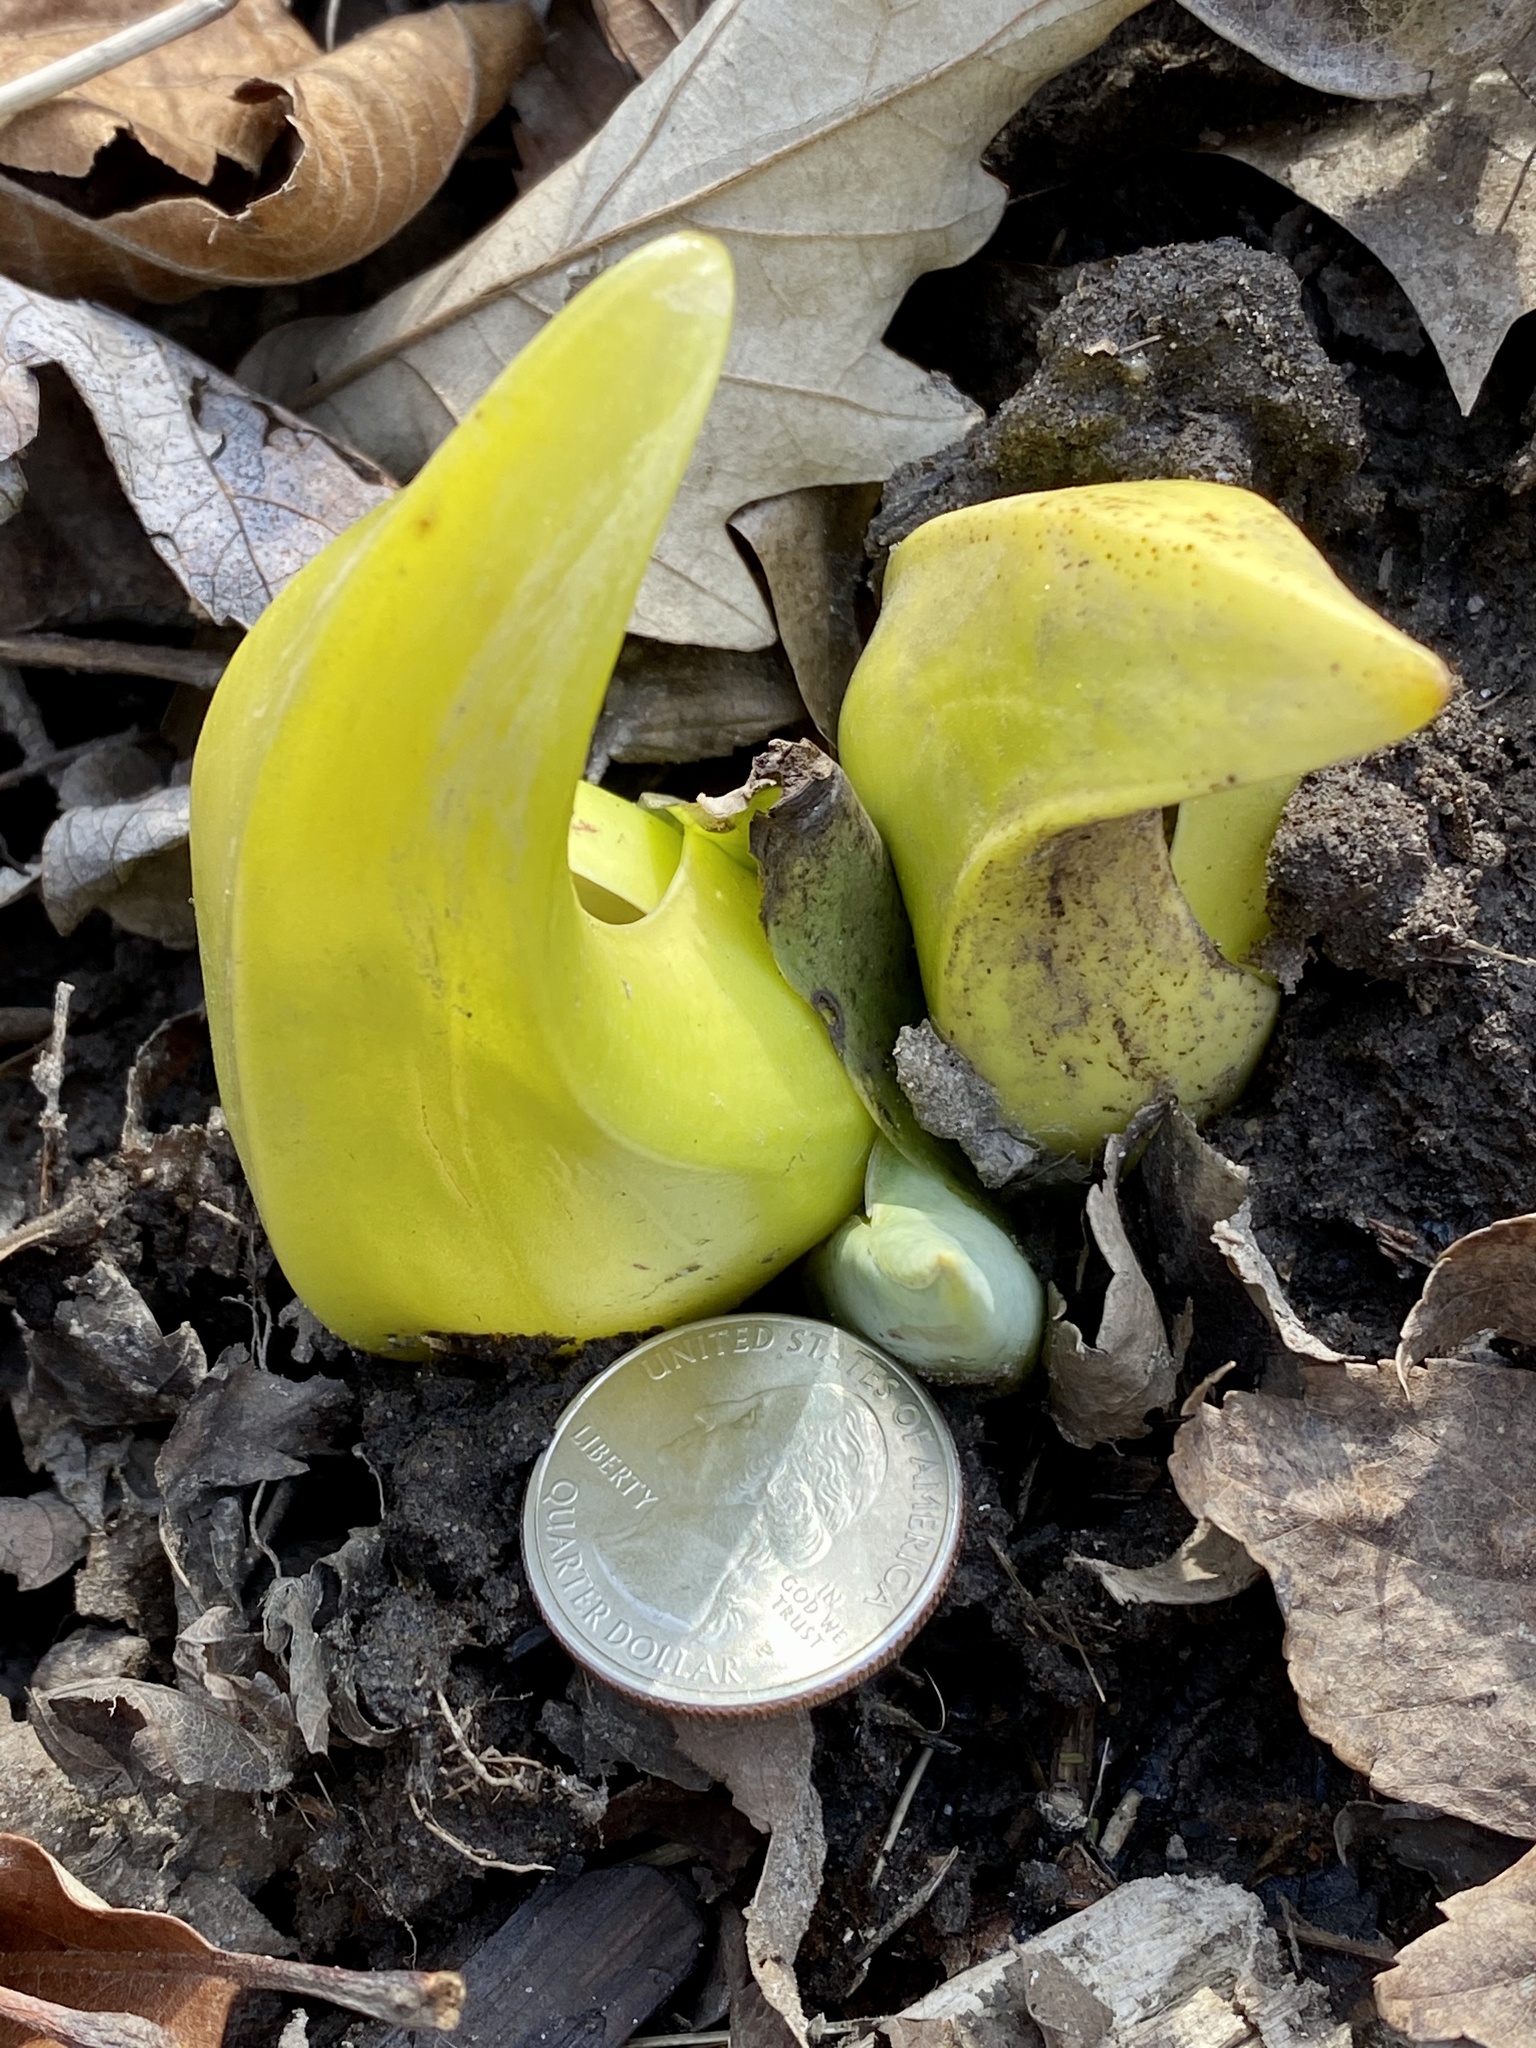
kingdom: Plantae
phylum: Tracheophyta
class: Liliopsida
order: Alismatales
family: Araceae
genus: Symplocarpus
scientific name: Symplocarpus foetidus
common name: Eastern skunk cabbage
